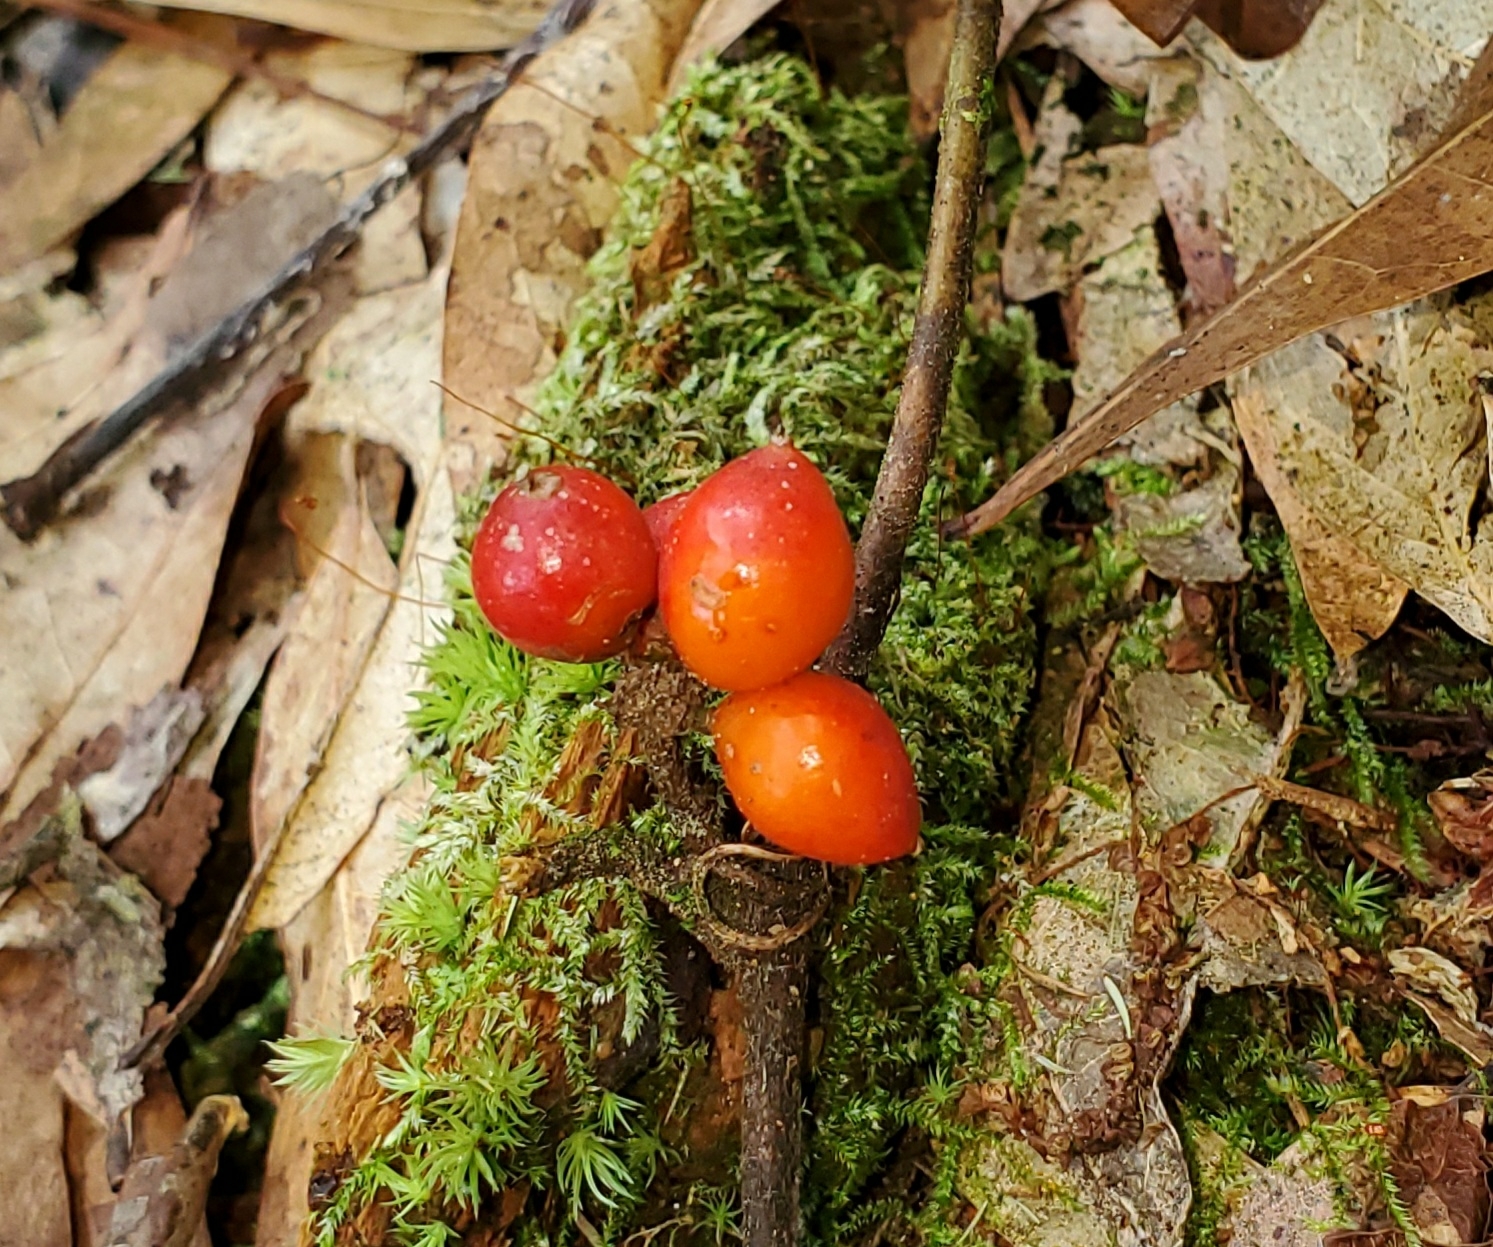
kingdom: Plantae
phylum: Tracheophyta
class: Liliopsida
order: Liliales
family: Smilacaceae
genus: Smilax
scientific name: Smilax pumila
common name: Sarsaparilla-vine
